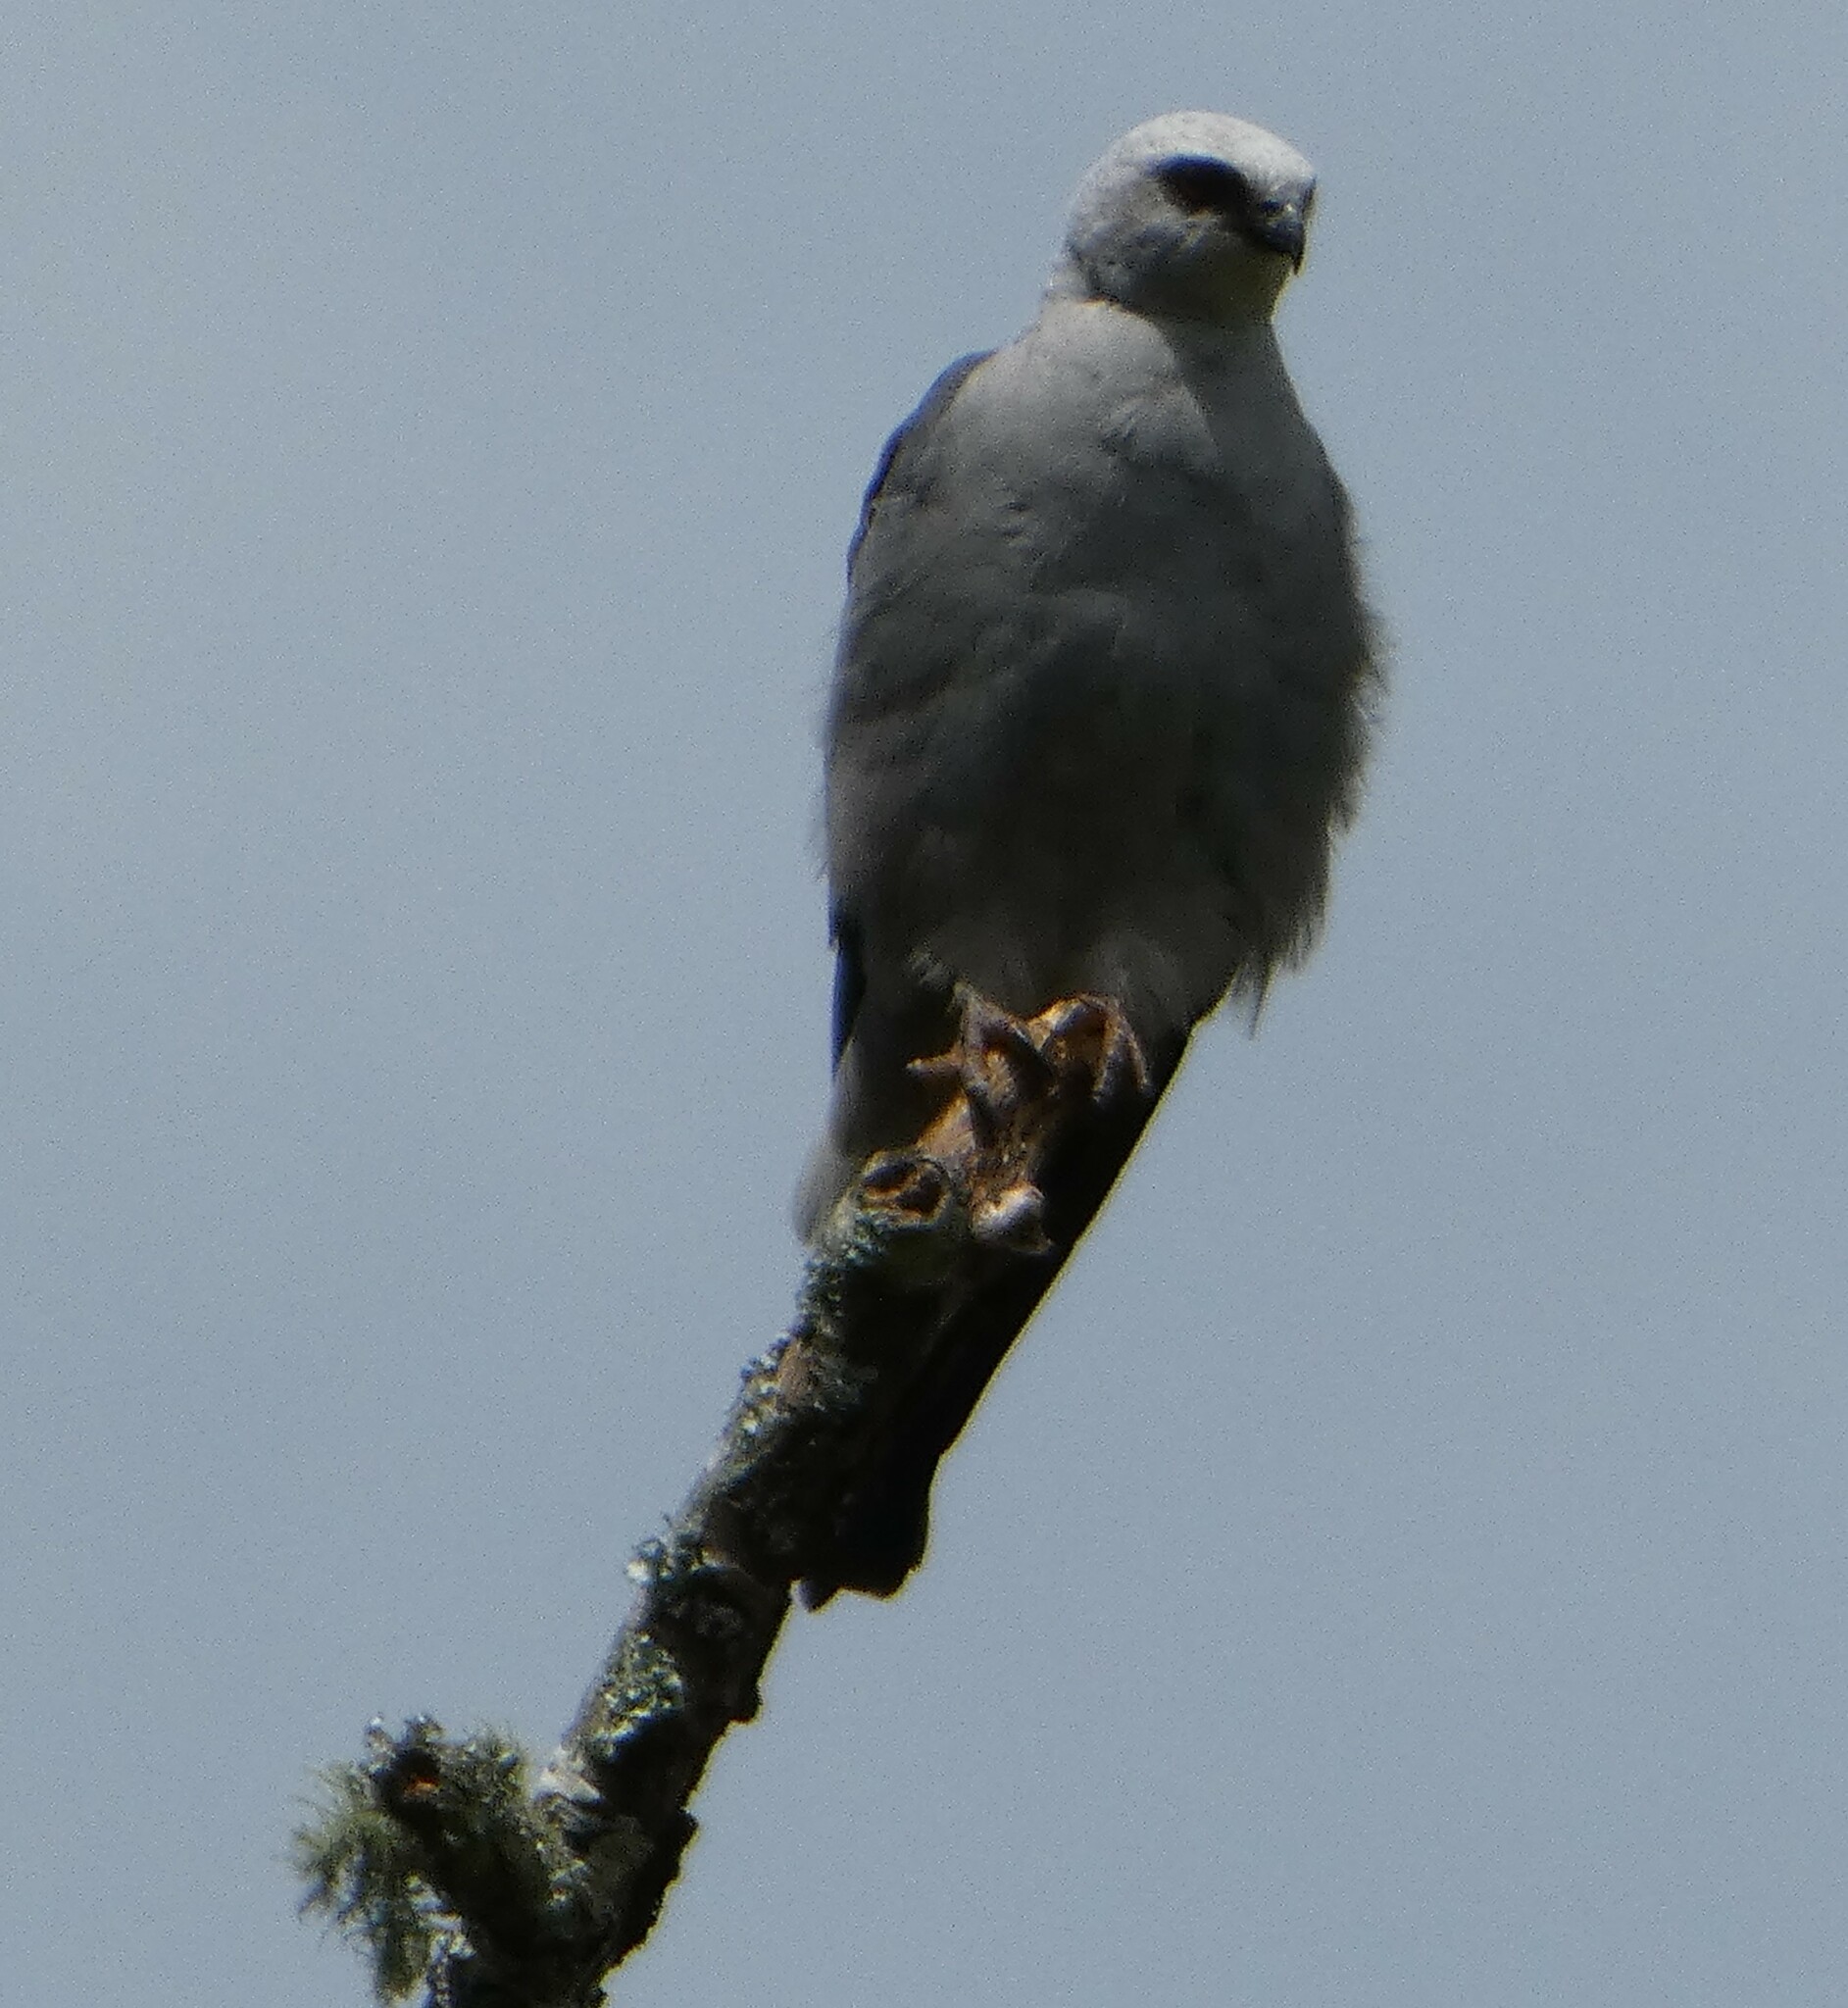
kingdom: Animalia
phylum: Chordata
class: Aves
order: Accipitriformes
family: Accipitridae
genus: Ictinia
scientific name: Ictinia mississippiensis
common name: Mississippi kite
